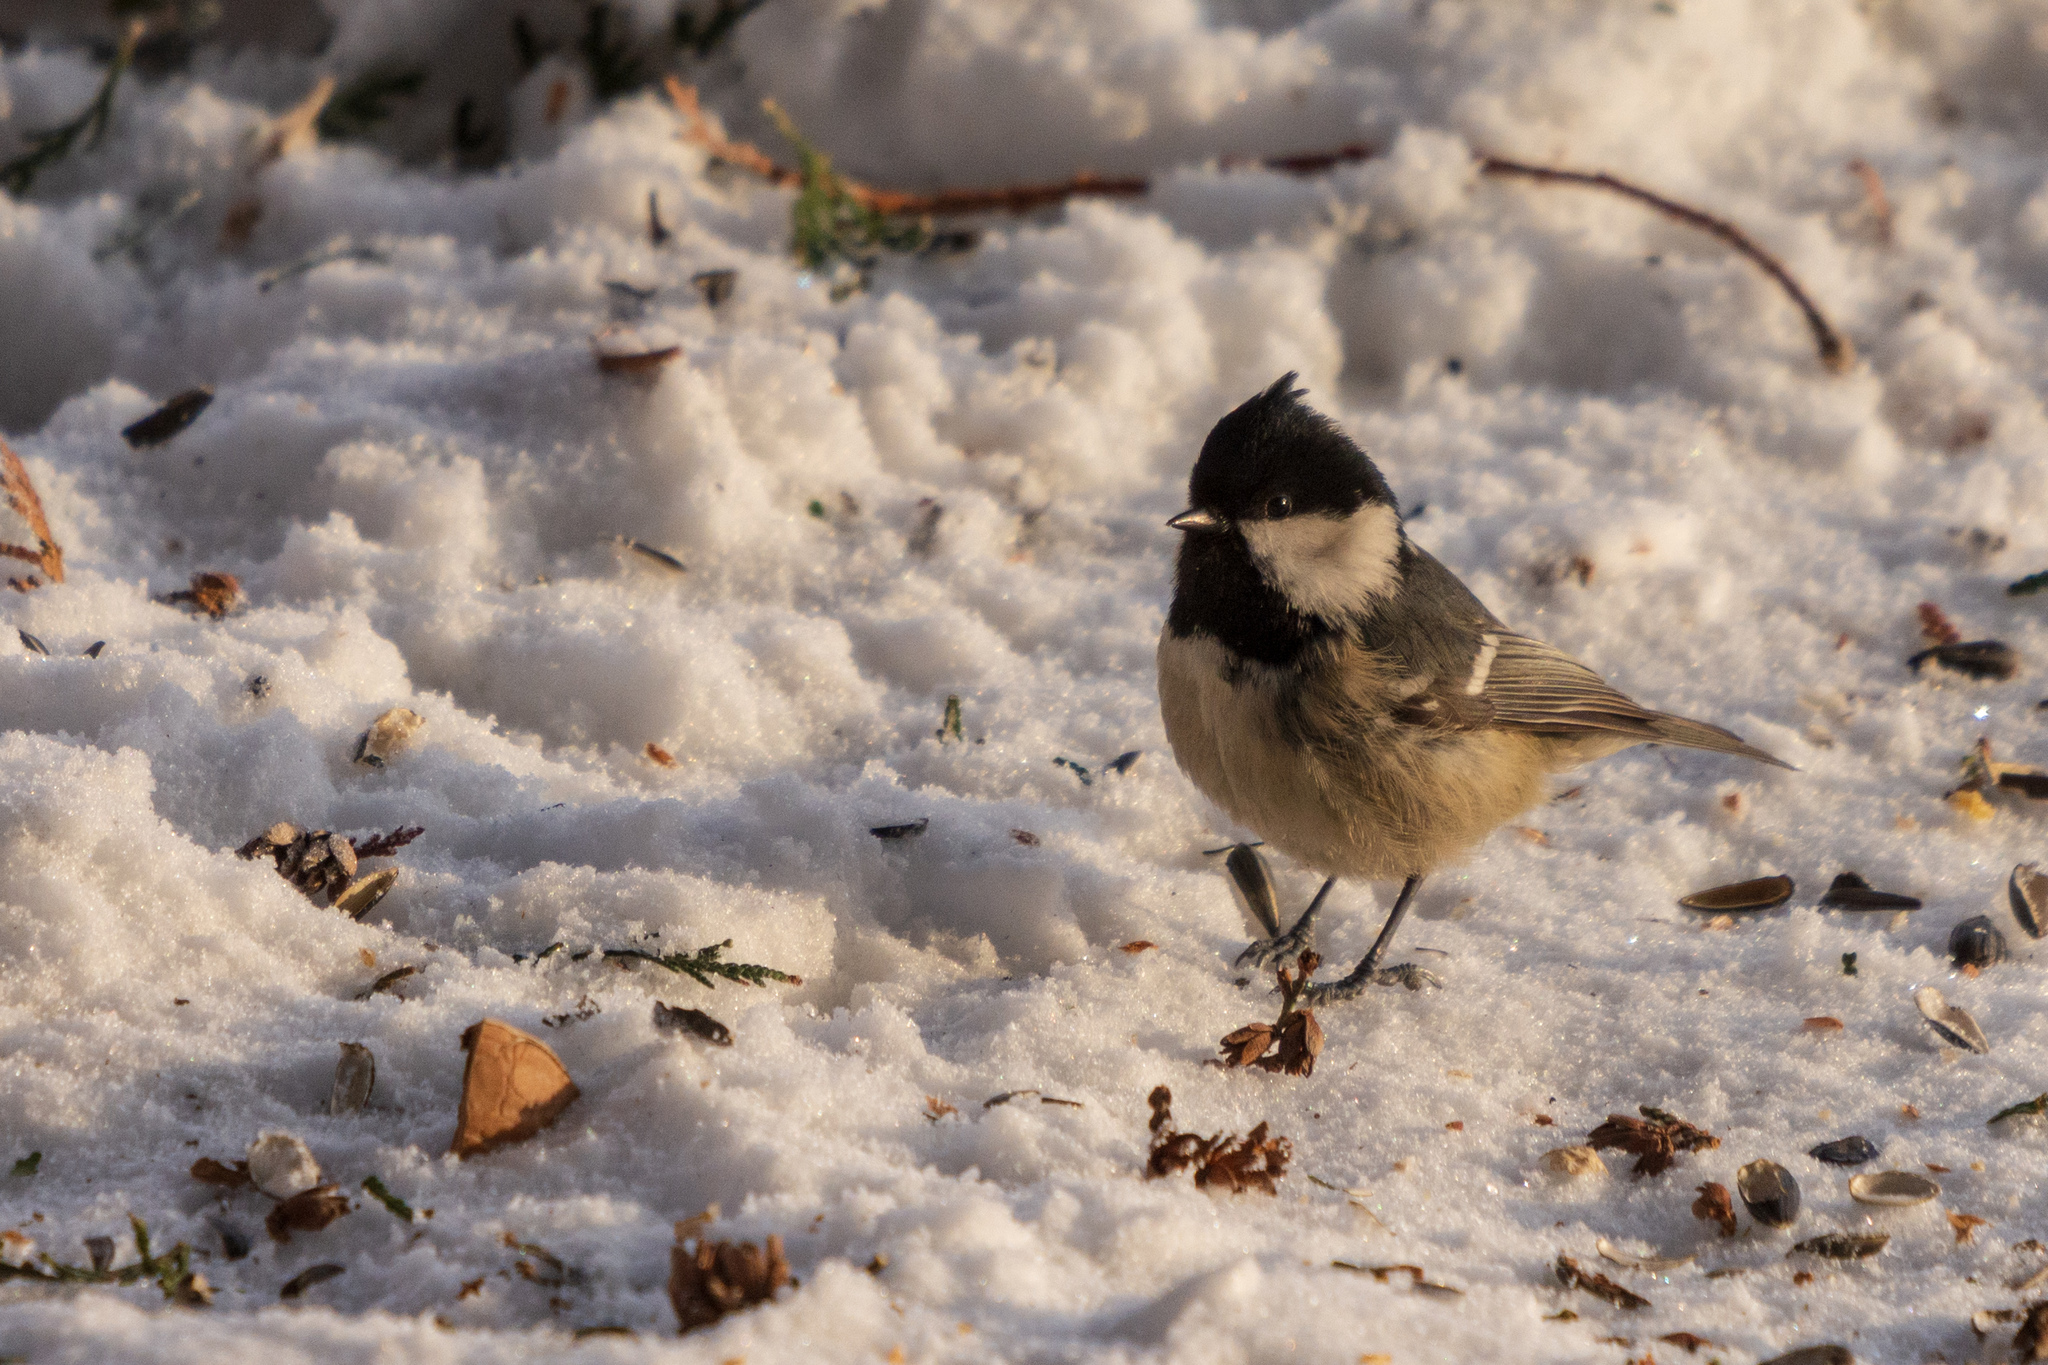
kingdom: Animalia
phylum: Chordata
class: Aves
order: Passeriformes
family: Paridae
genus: Periparus
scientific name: Periparus ater
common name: Coal tit
